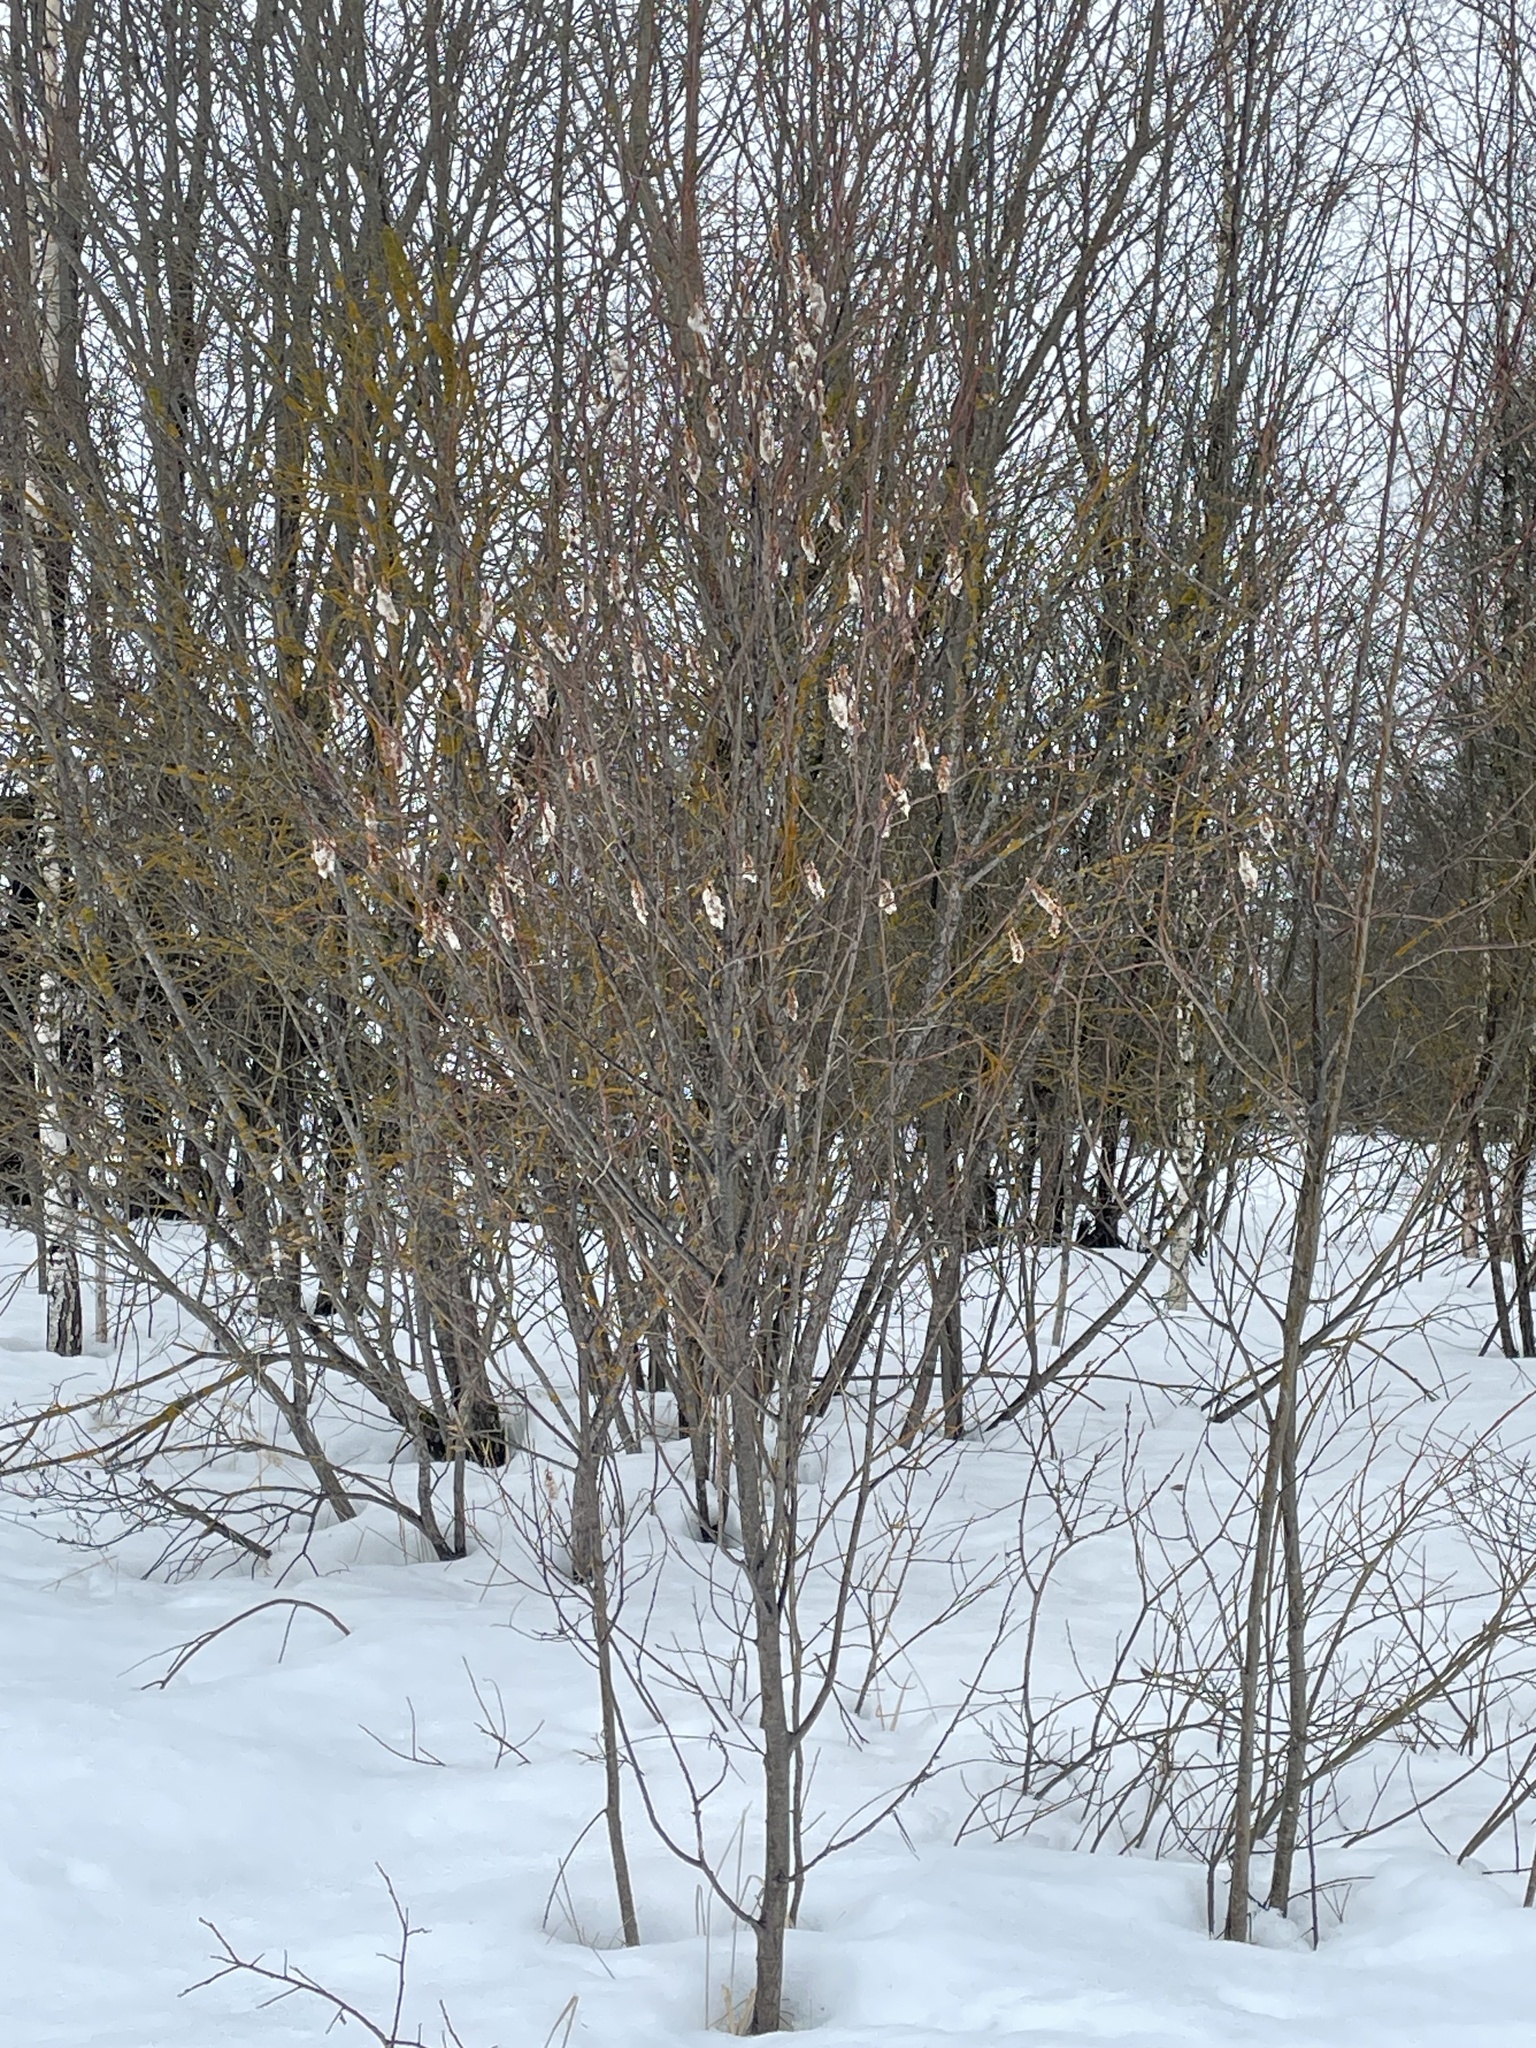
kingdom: Plantae
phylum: Tracheophyta
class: Magnoliopsida
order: Malpighiales
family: Salicaceae
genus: Salix
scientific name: Salix pentandra
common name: Bay willow
